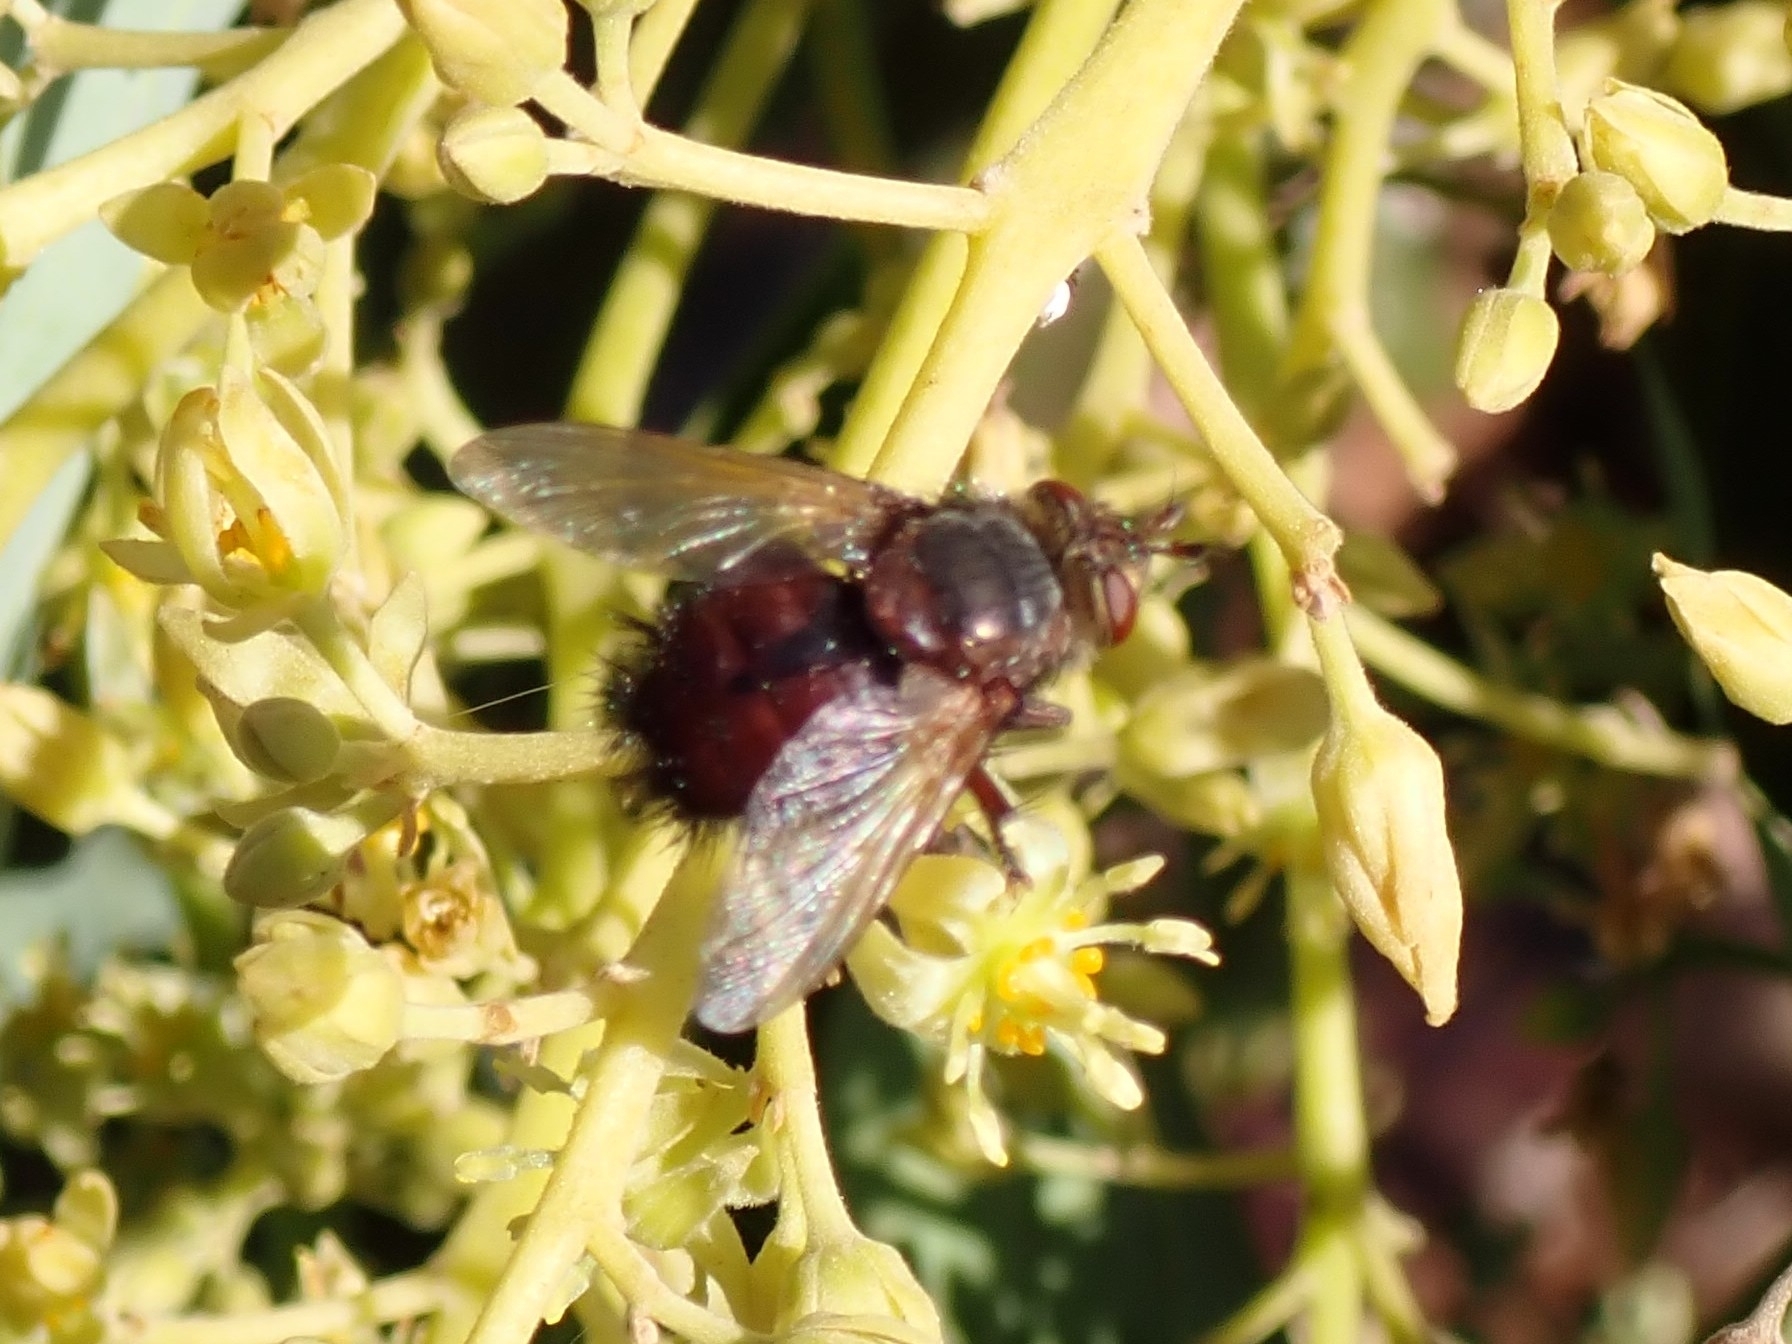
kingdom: Animalia
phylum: Arthropoda
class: Insecta
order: Diptera
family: Tachinidae
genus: Tachina
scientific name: Tachina canariensis
